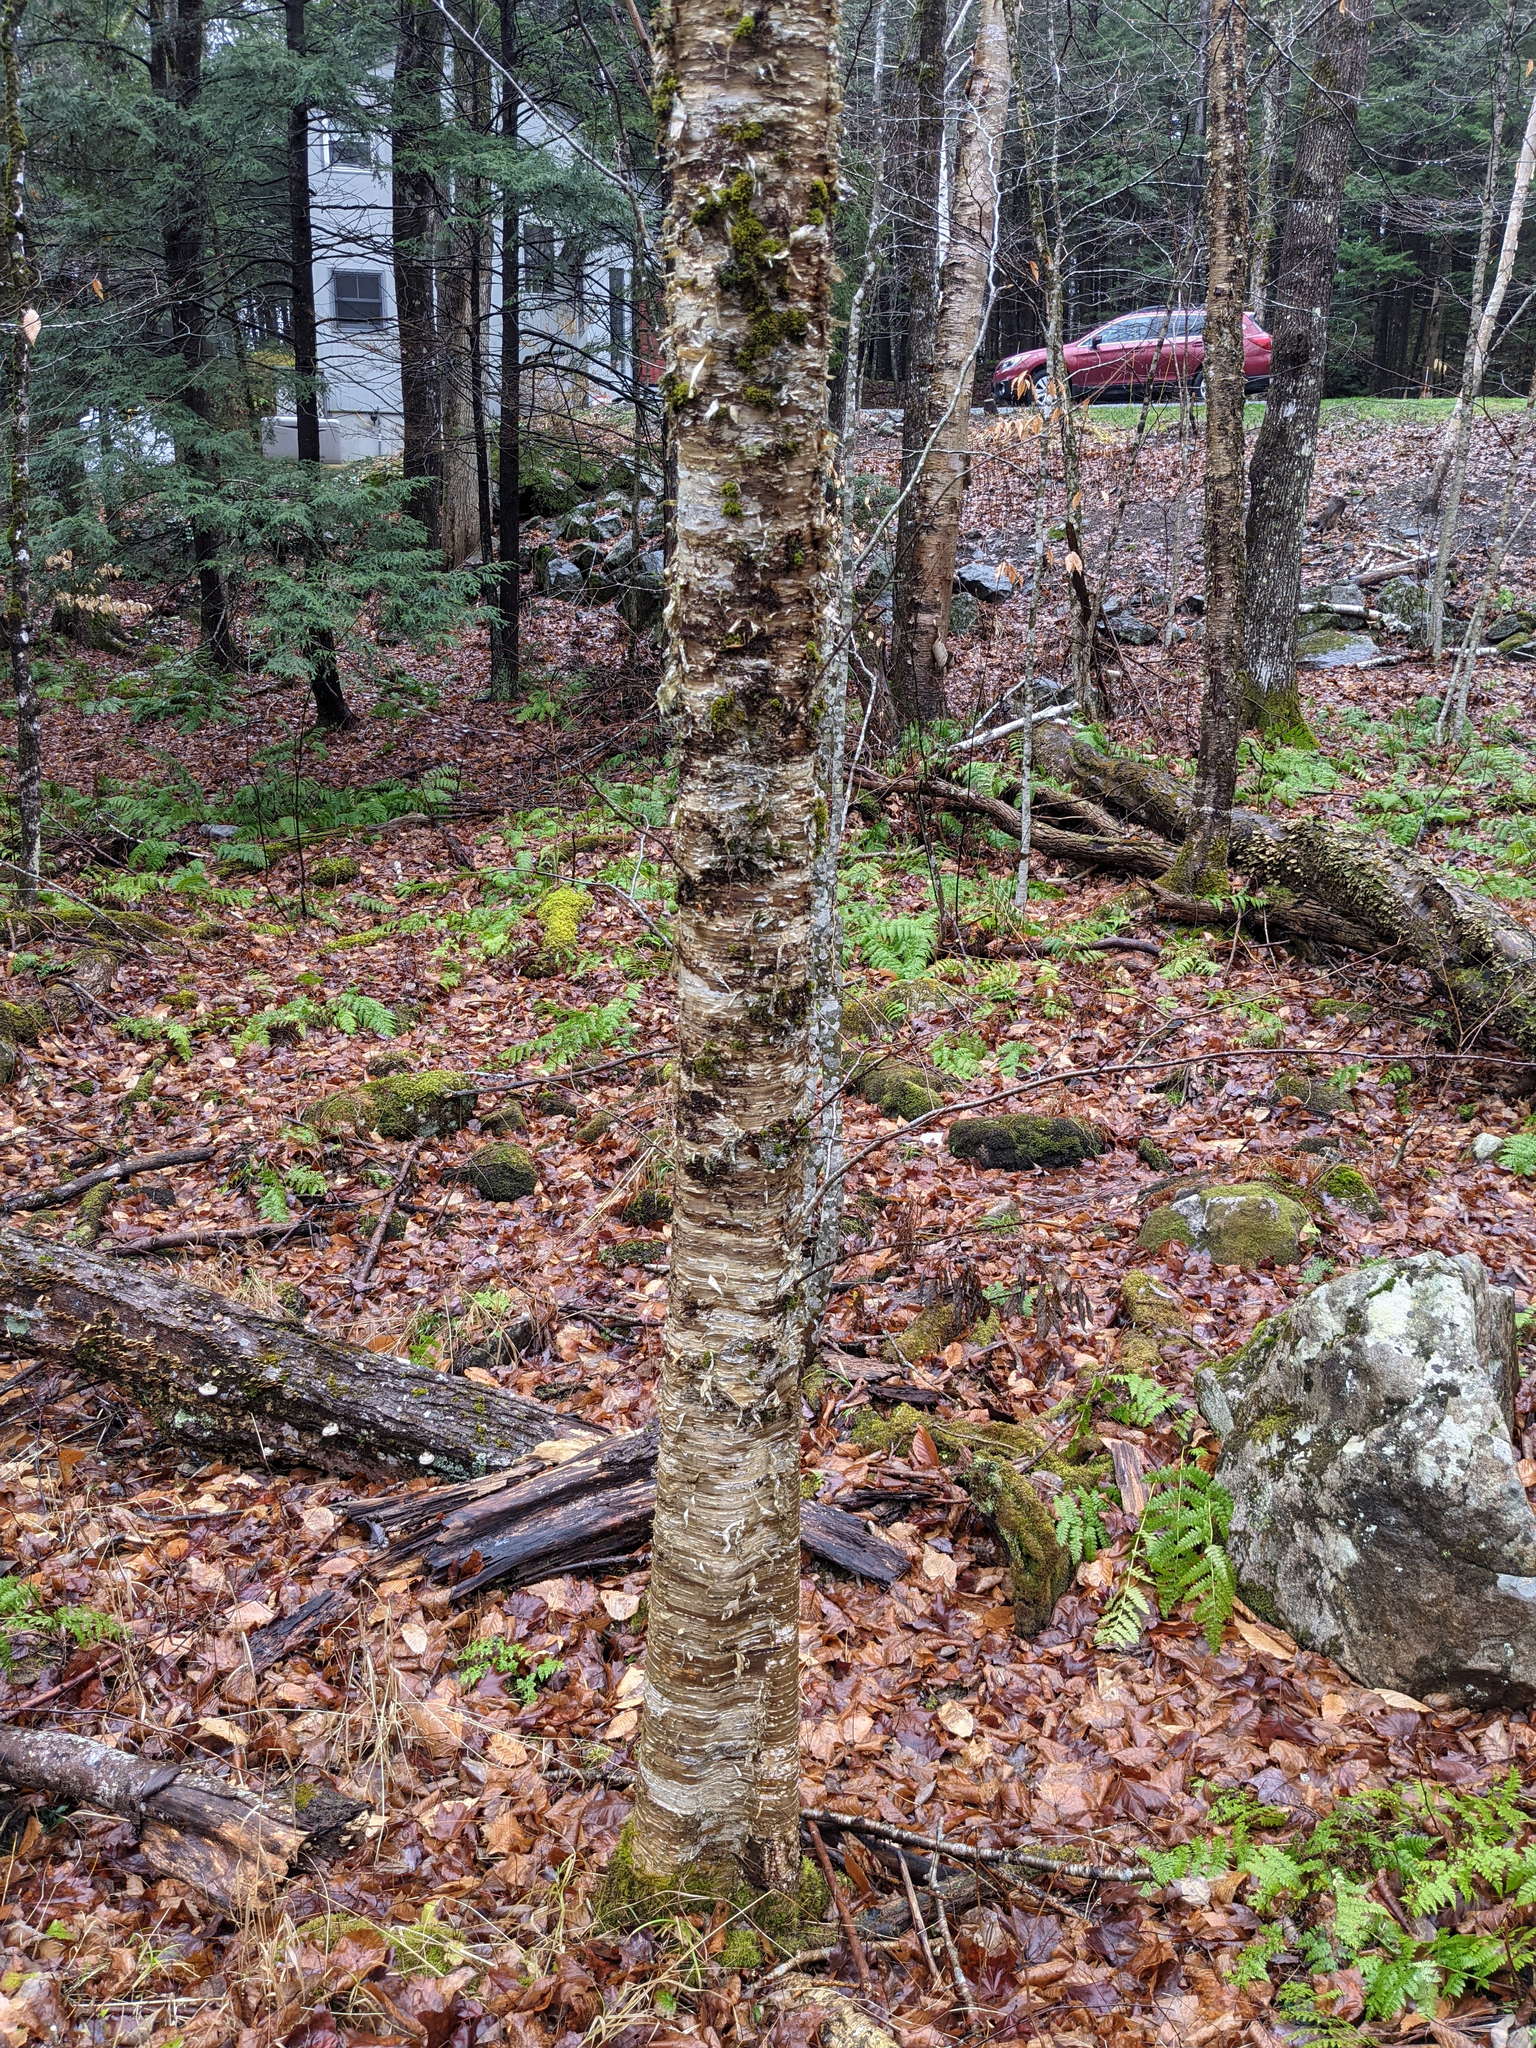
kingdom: Plantae
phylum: Tracheophyta
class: Magnoliopsida
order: Fagales
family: Betulaceae
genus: Betula
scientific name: Betula alleghaniensis
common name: Yellow birch
